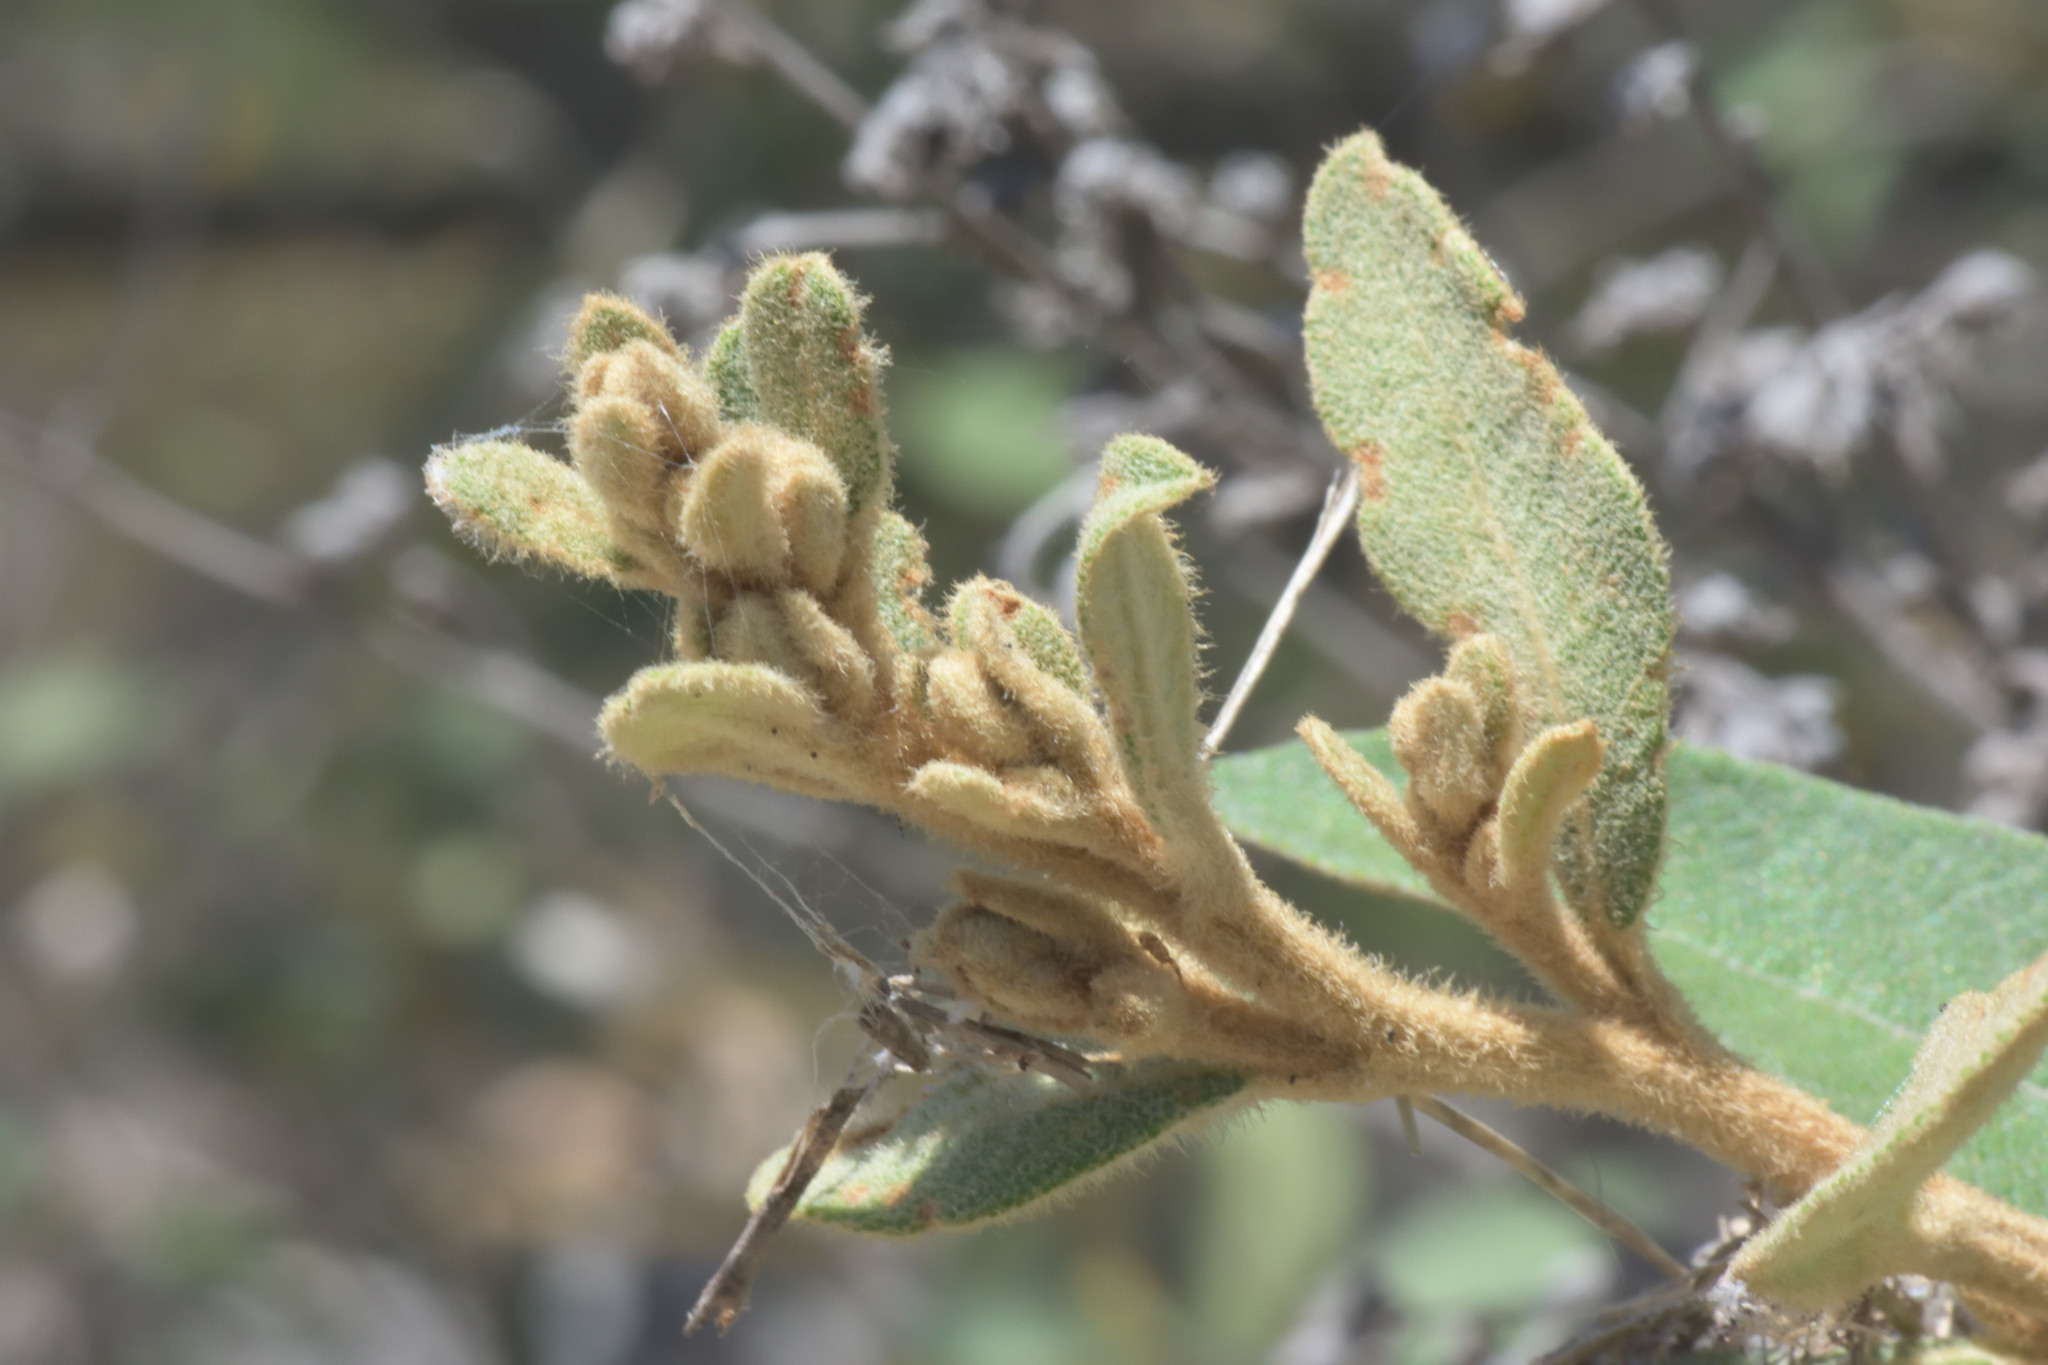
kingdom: Plantae
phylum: Tracheophyta
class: Magnoliopsida
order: Asterales
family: Asteraceae
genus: Tarchonanthus
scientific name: Tarchonanthus littoralis
